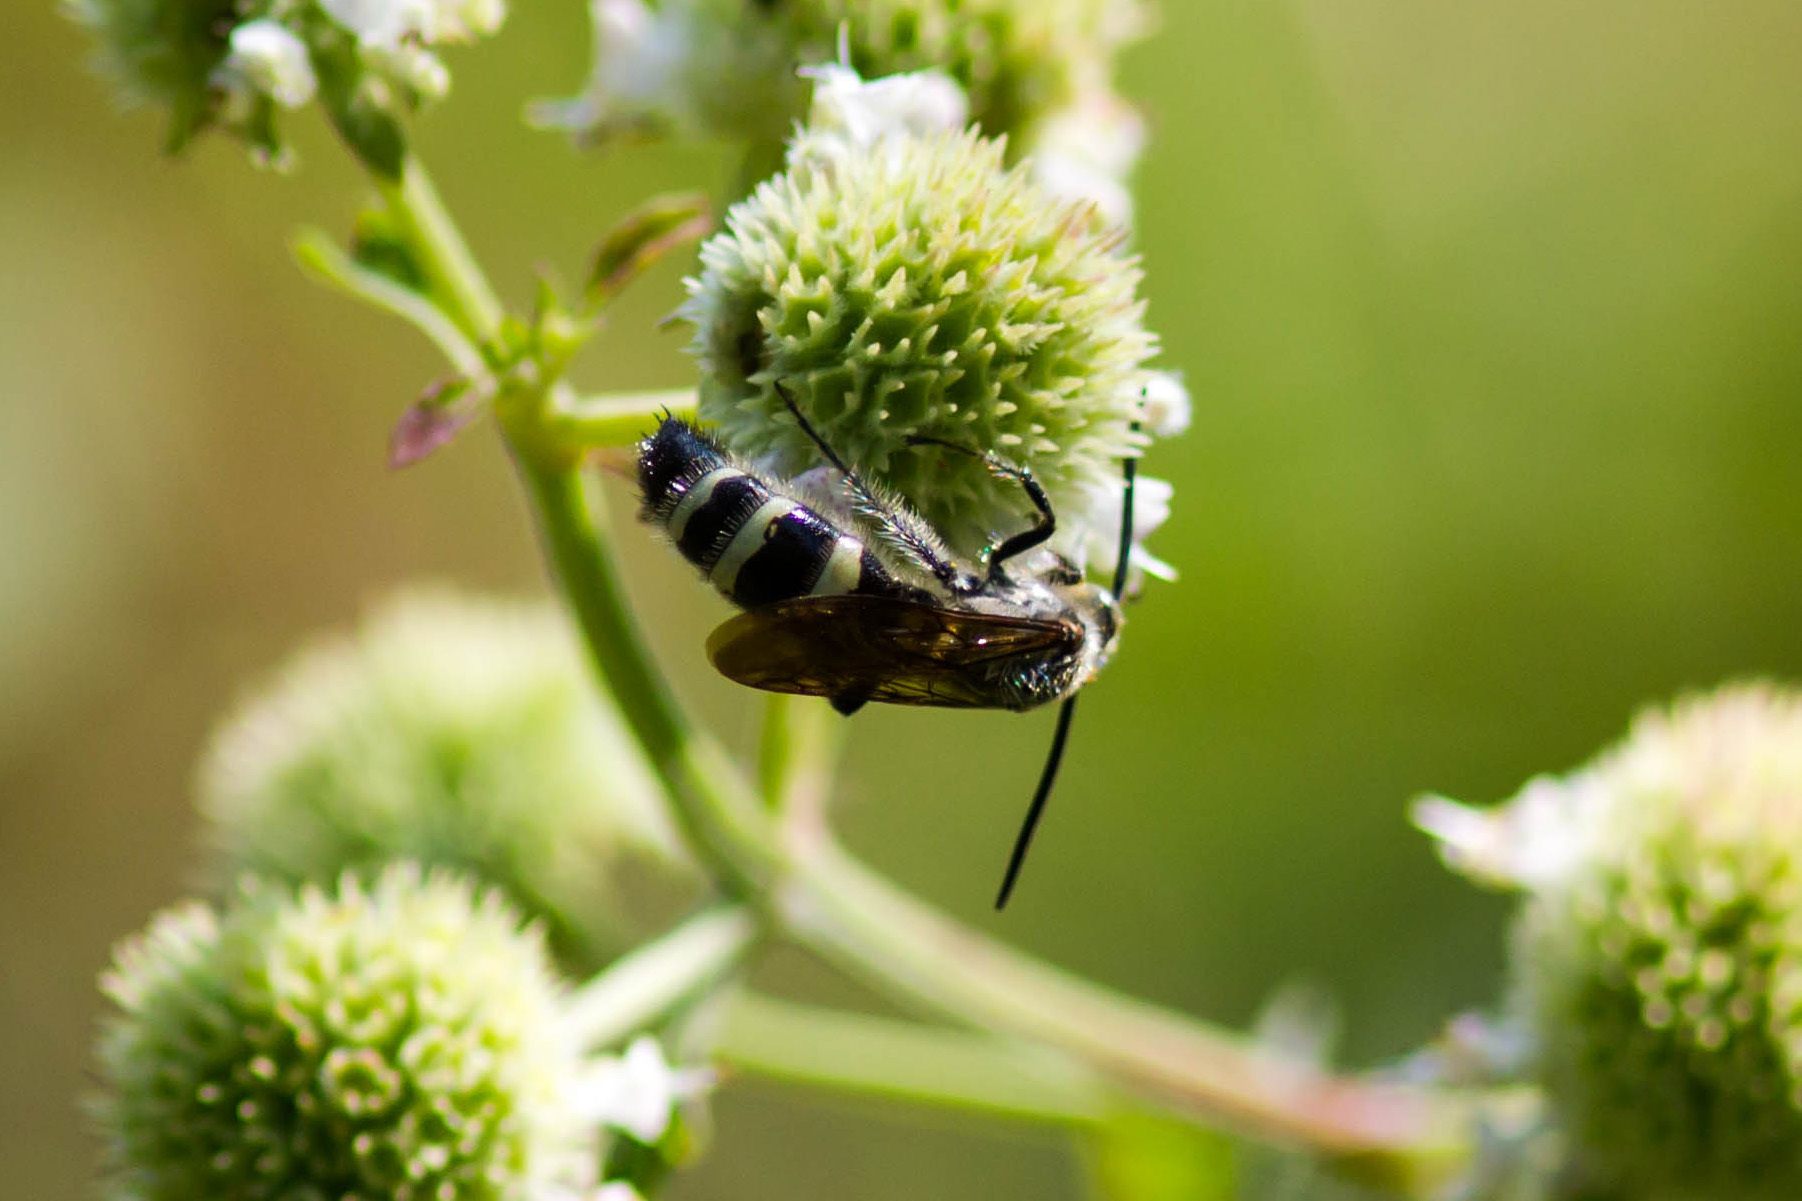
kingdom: Animalia
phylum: Arthropoda
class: Insecta
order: Hymenoptera
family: Scoliidae
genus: Dielis
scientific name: Dielis
